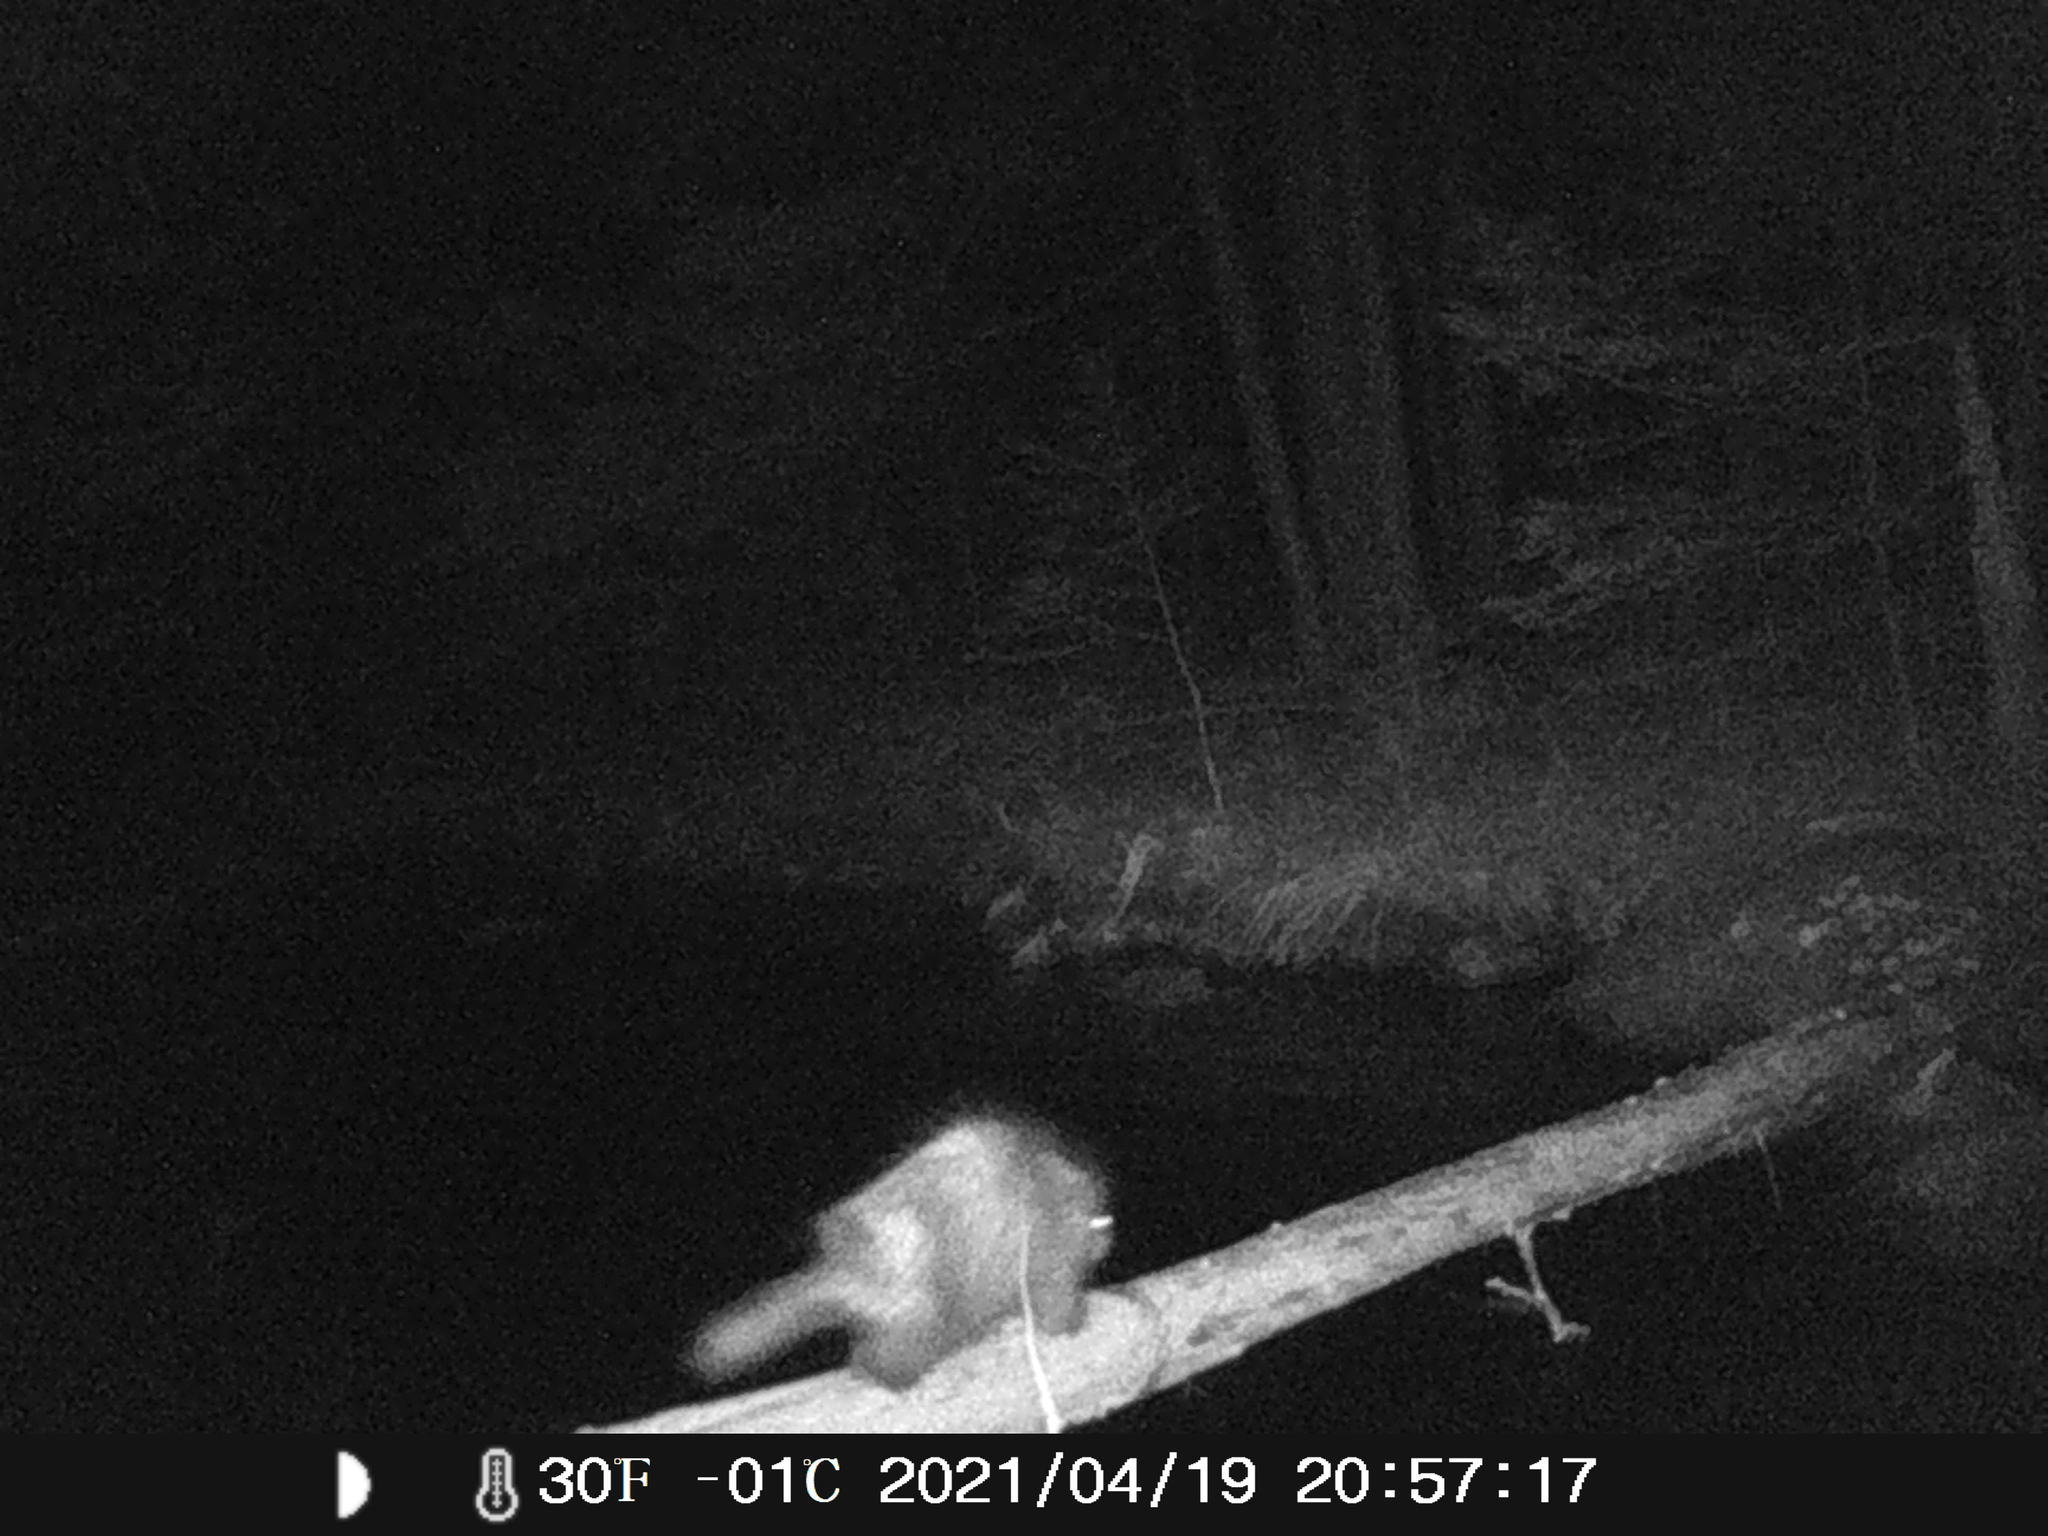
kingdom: Animalia
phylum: Chordata
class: Mammalia
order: Rodentia
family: Erethizontidae
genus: Erethizon
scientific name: Erethizon dorsatus
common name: North american porcupine
